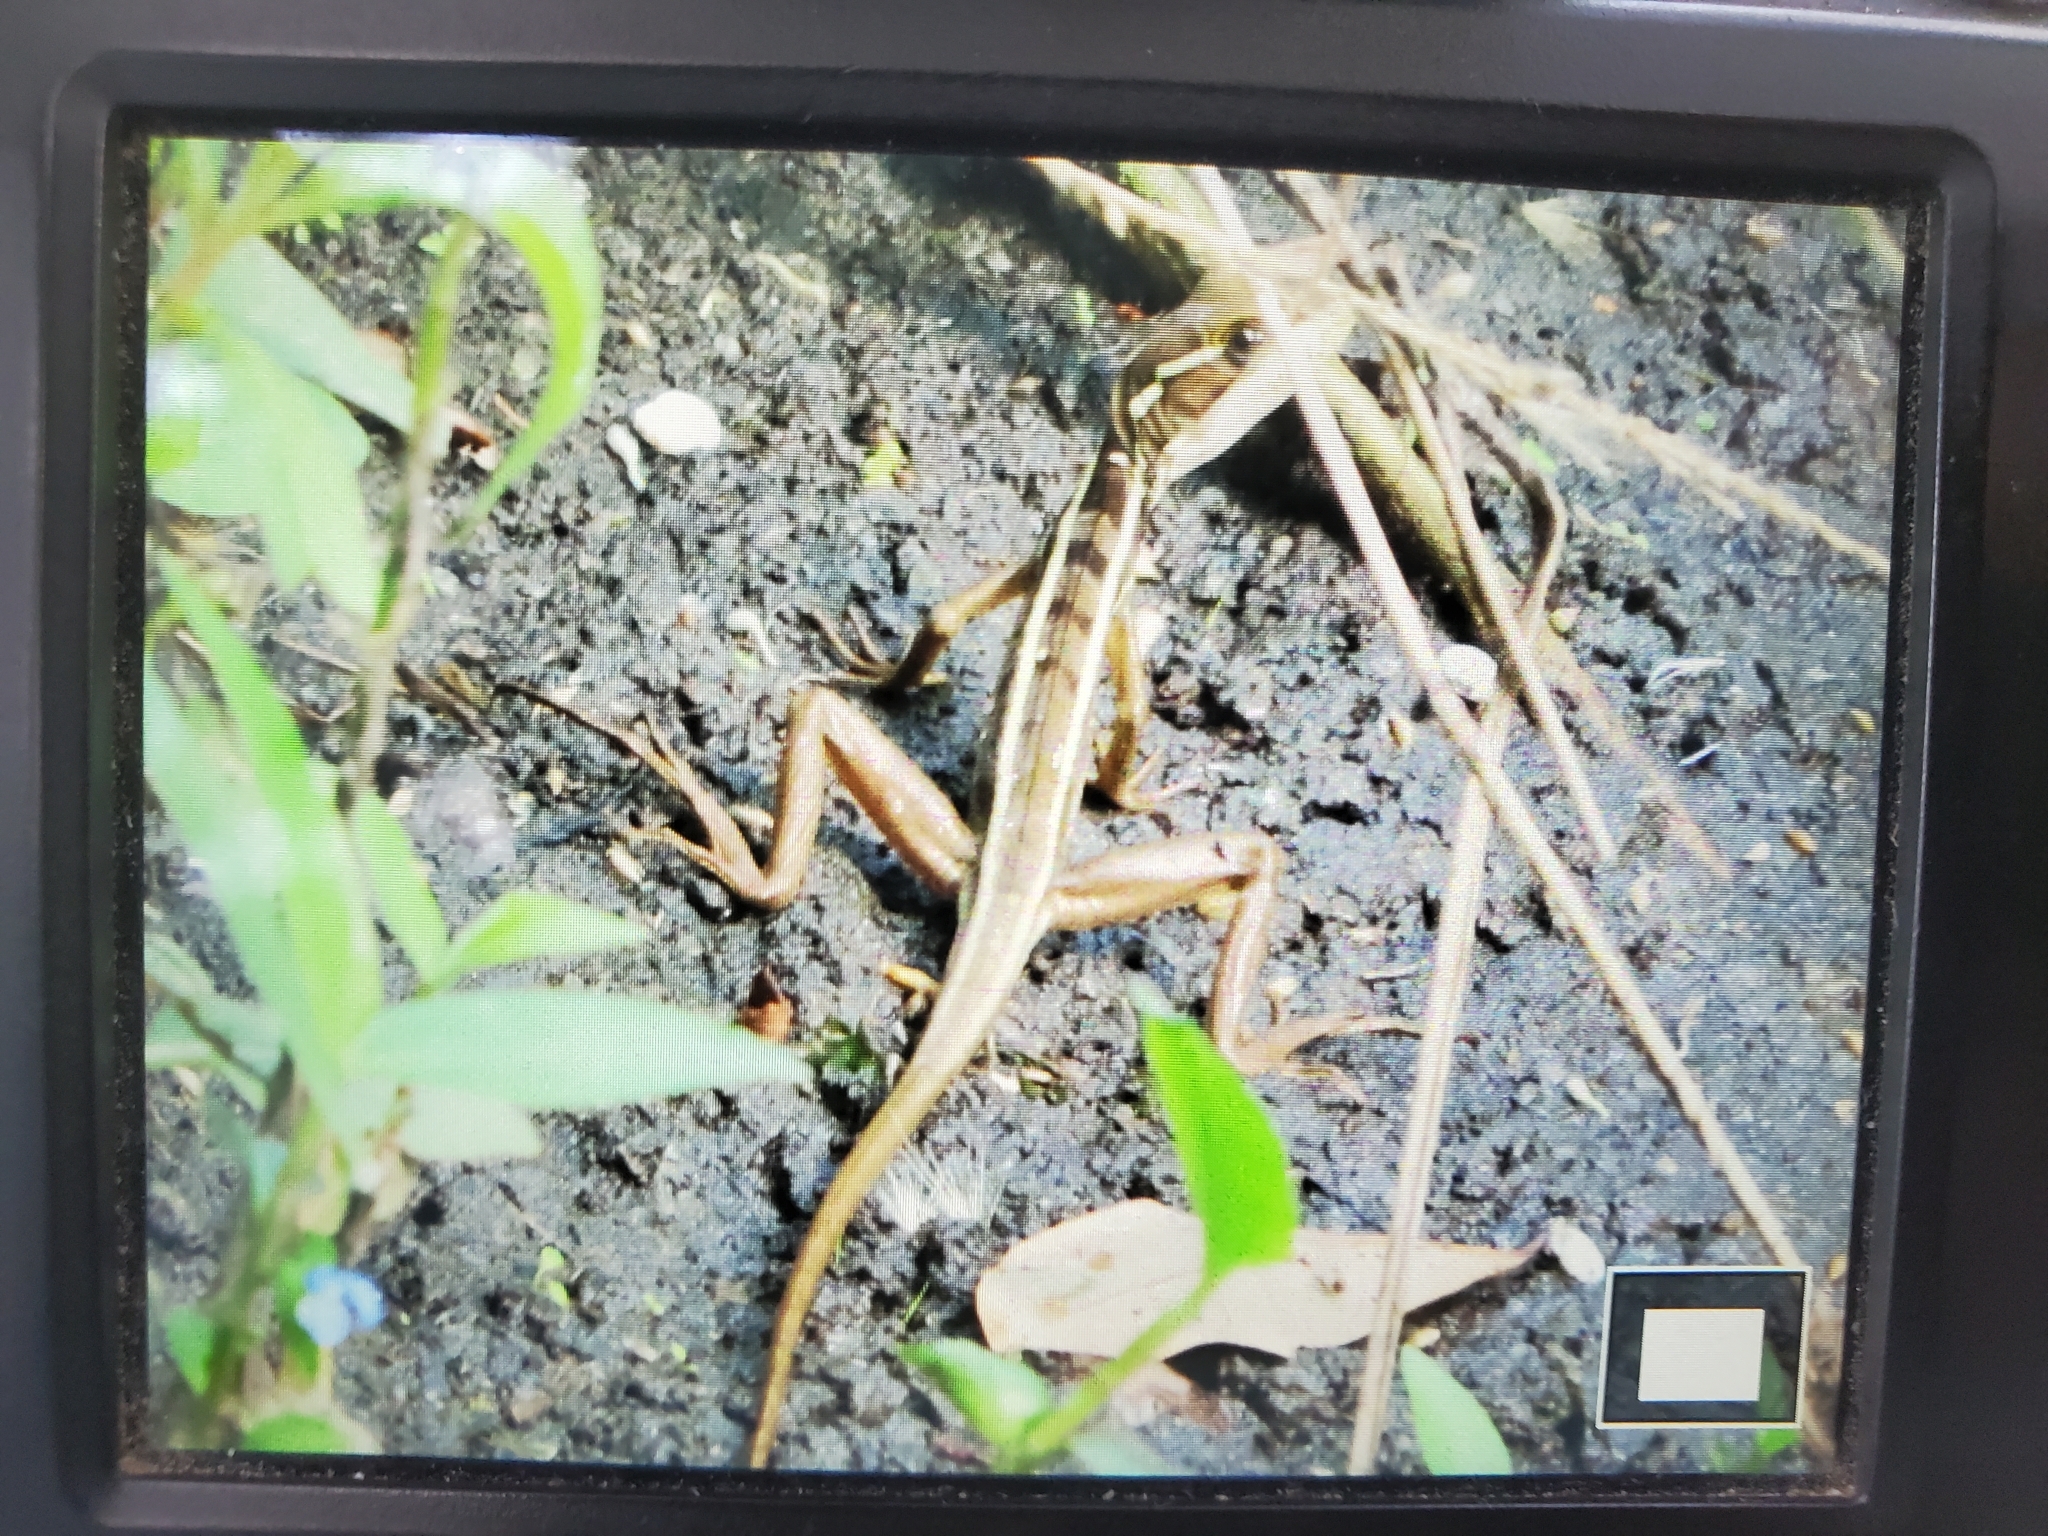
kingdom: Animalia
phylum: Chordata
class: Squamata
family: Corytophanidae
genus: Basiliscus
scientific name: Basiliscus vittatus
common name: Brown basilisk
